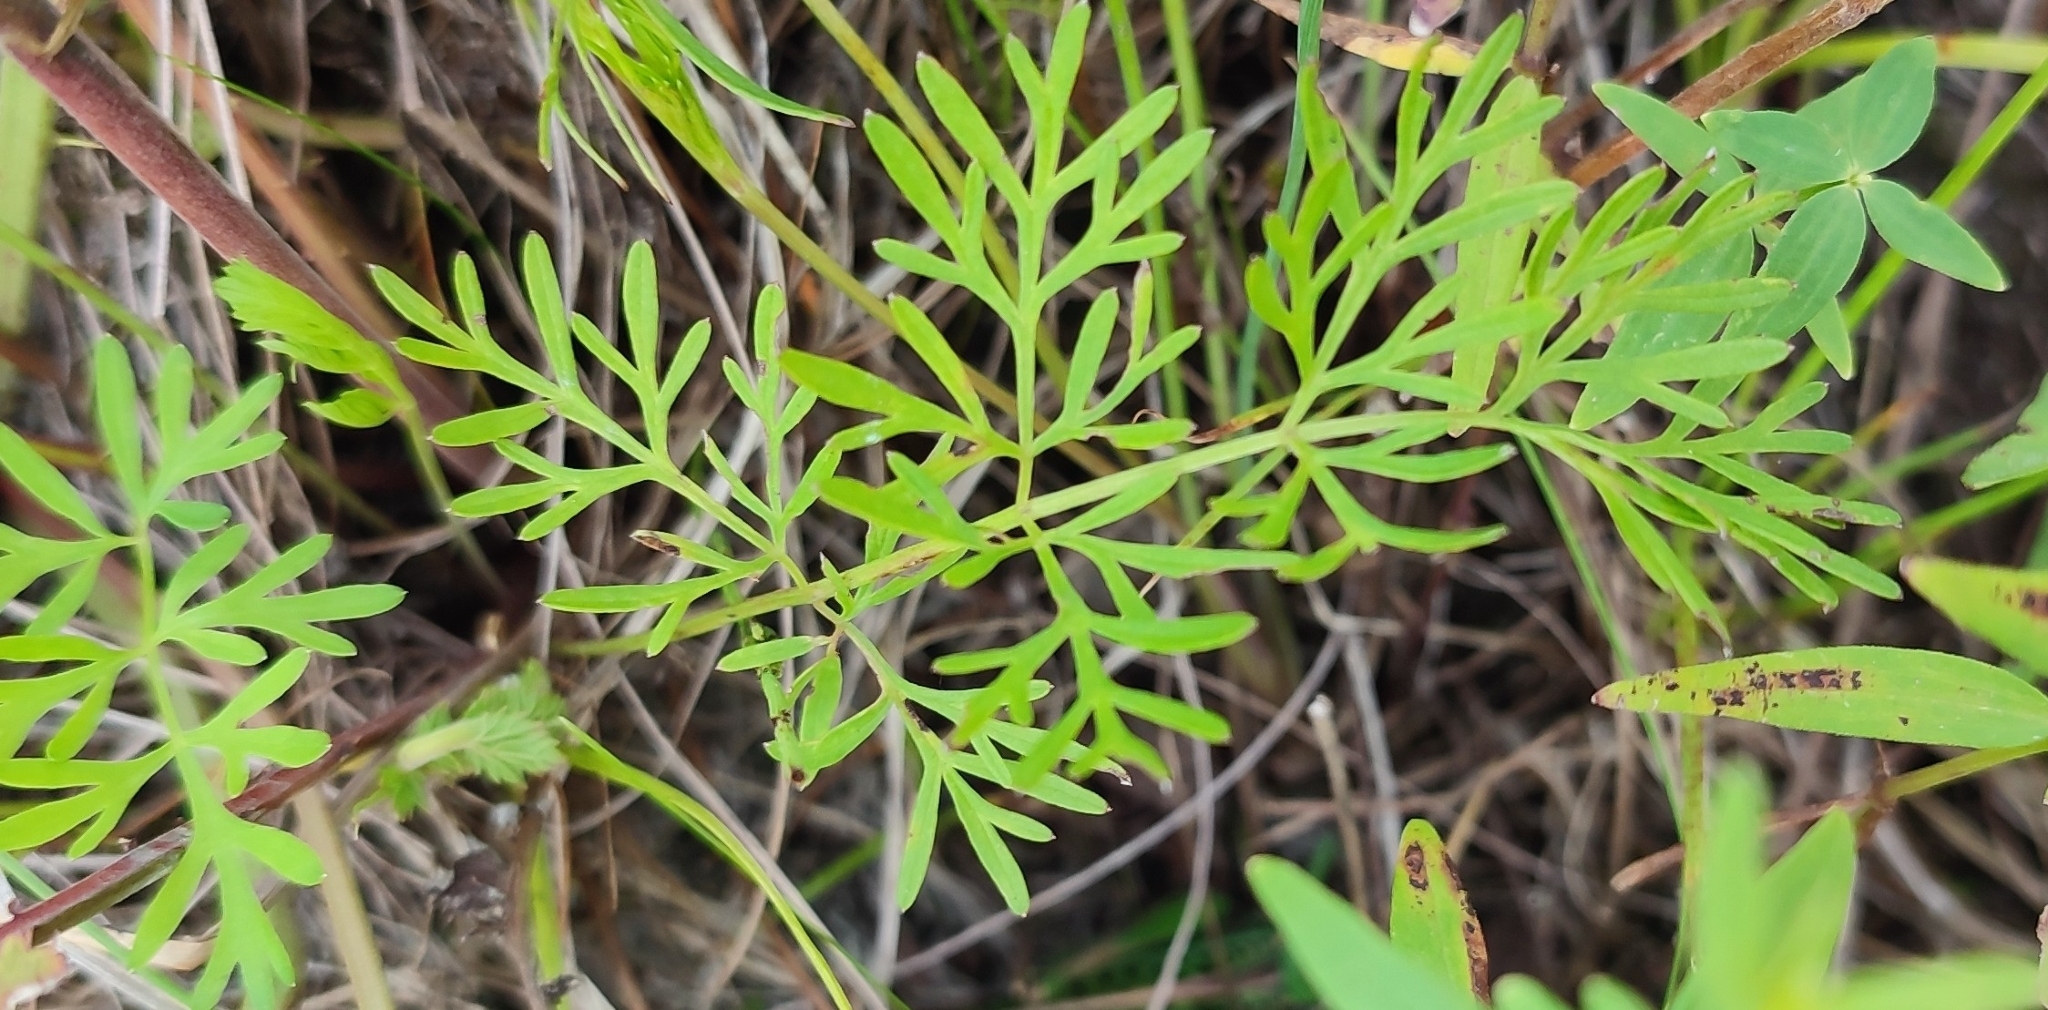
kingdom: Plantae
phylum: Tracheophyta
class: Magnoliopsida
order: Apiales
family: Apiaceae
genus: Kadenia
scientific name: Kadenia dubia
